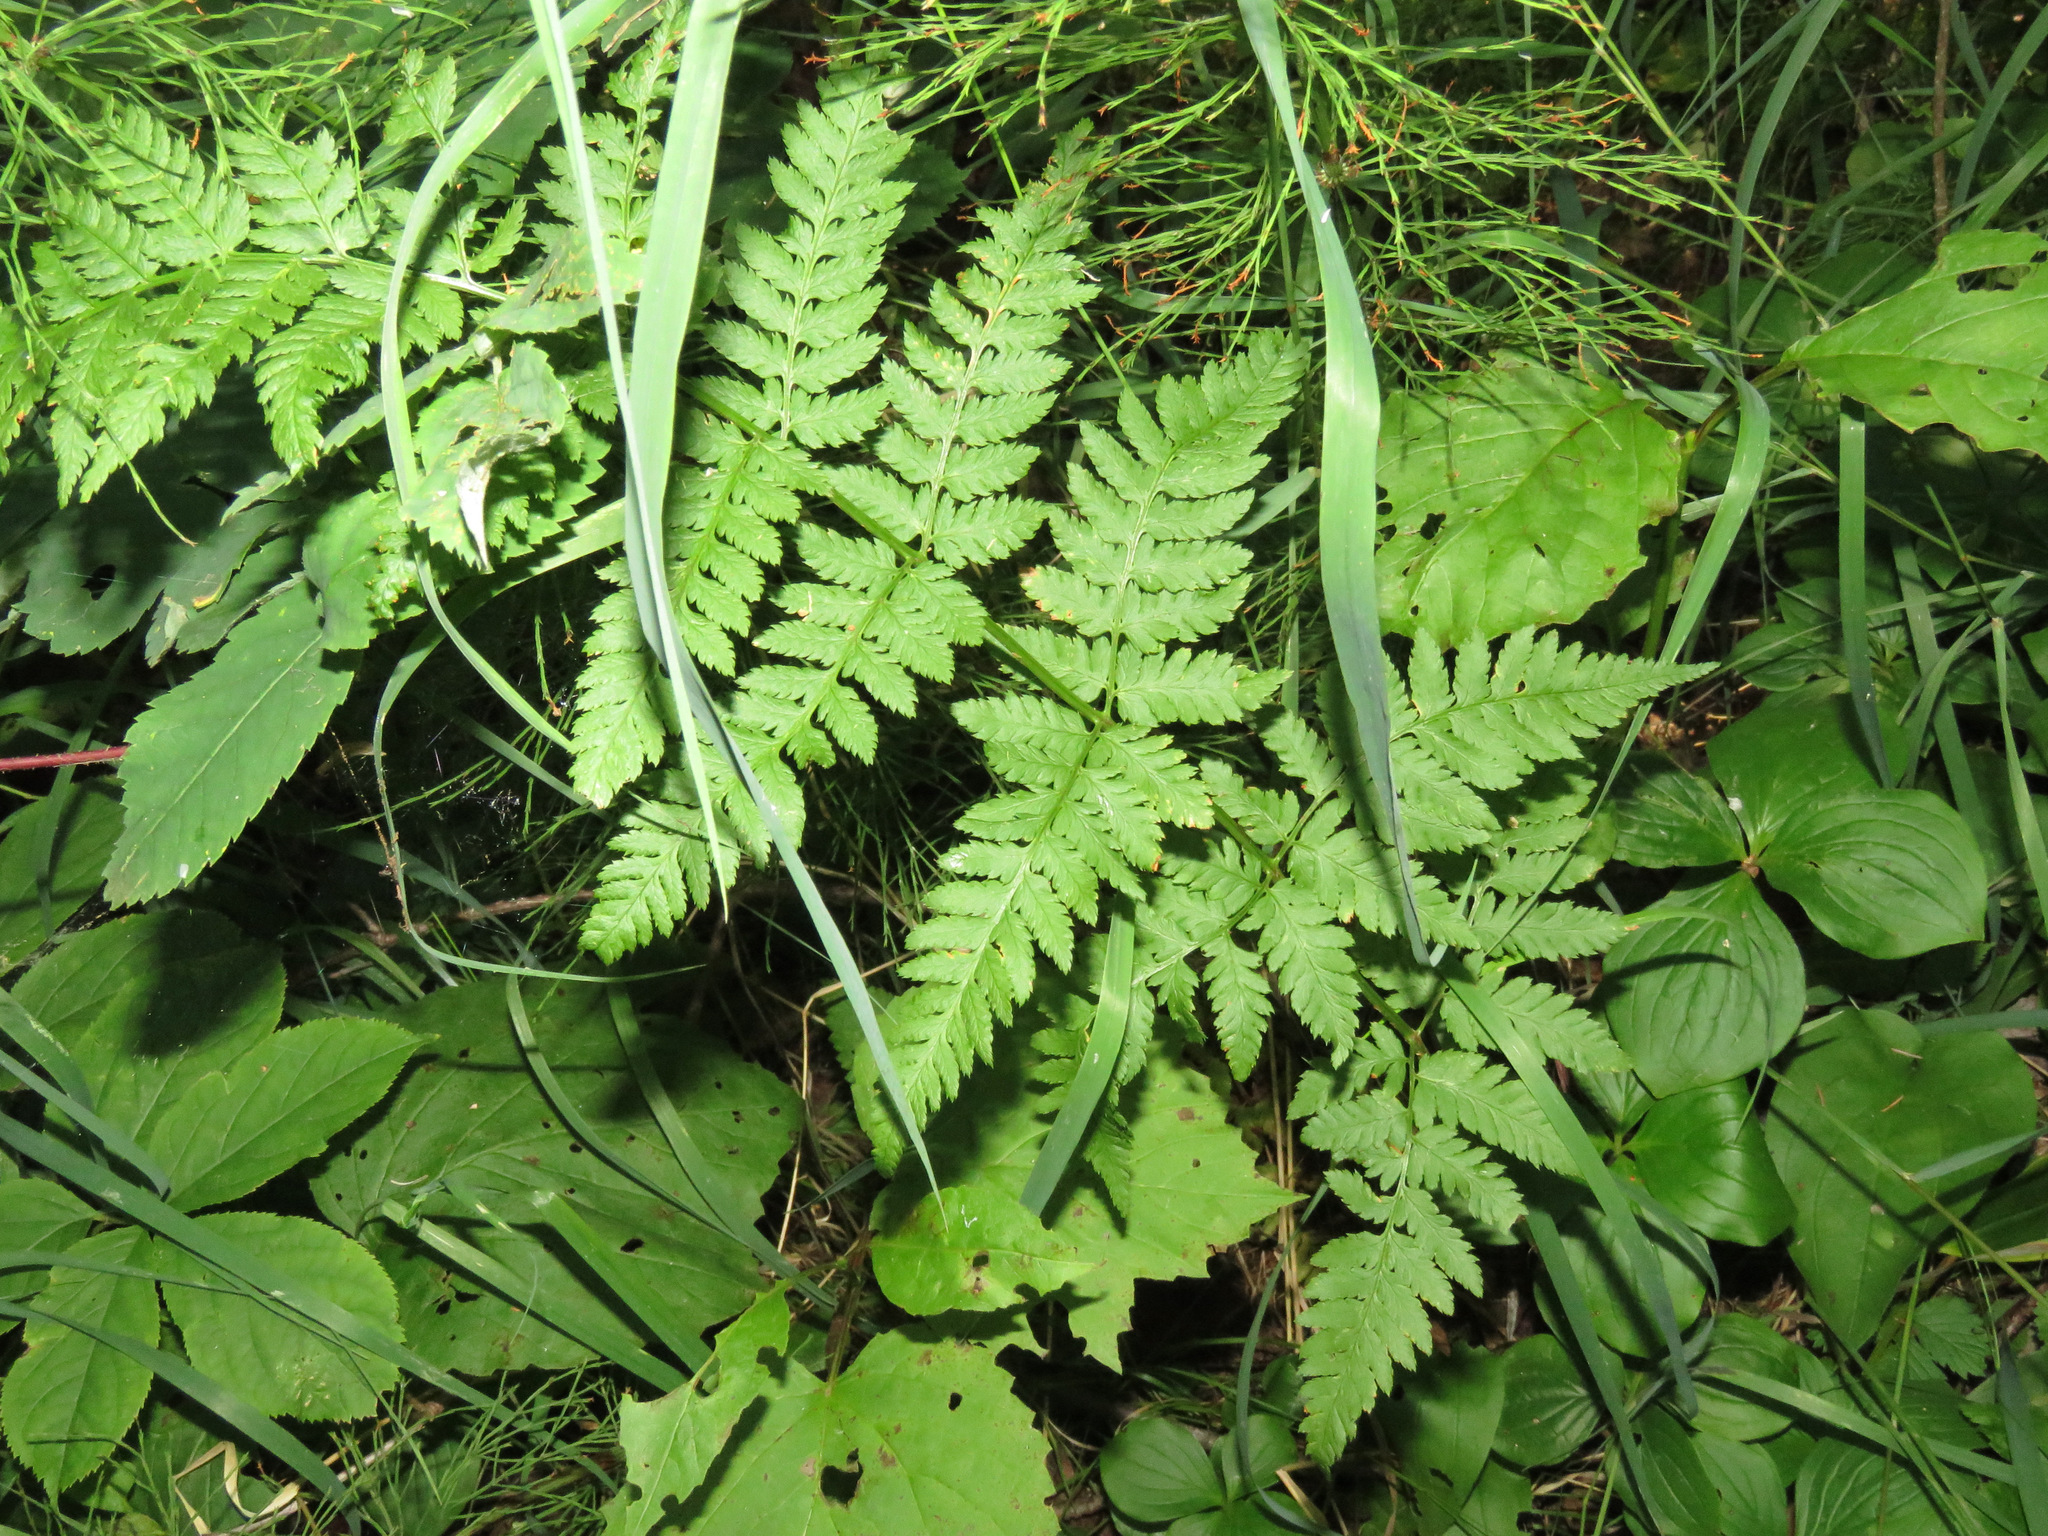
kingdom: Plantae
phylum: Tracheophyta
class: Polypodiopsida
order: Polypodiales
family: Dryopteridaceae
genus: Dryopteris
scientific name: Dryopteris carthusiana
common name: Narrow buckler-fern
